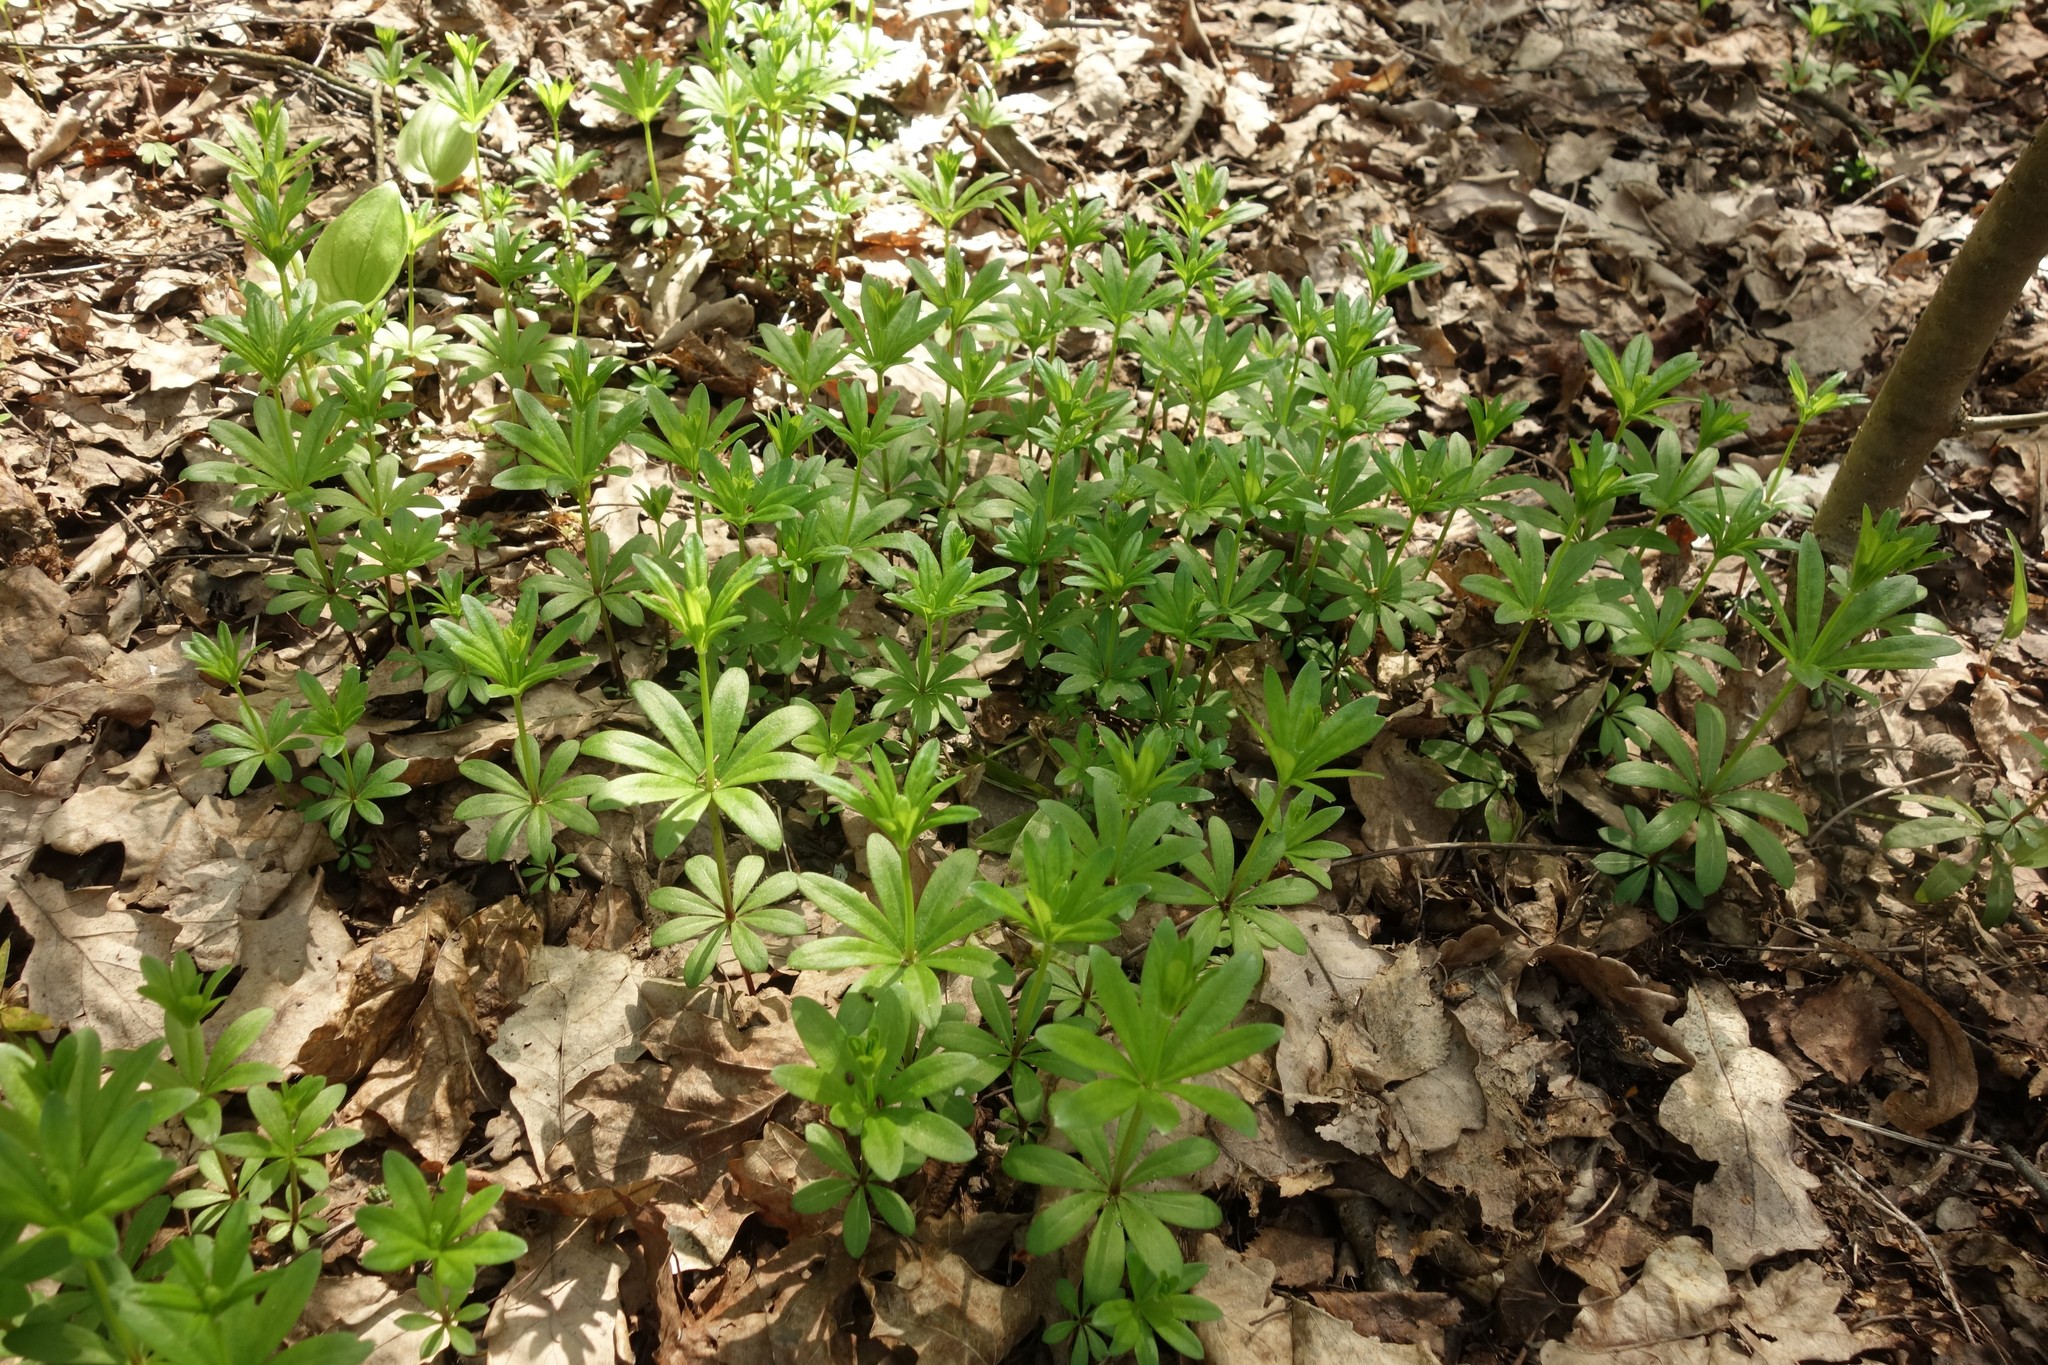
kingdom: Plantae
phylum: Tracheophyta
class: Magnoliopsida
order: Gentianales
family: Rubiaceae
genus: Galium
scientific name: Galium odoratum
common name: Sweet woodruff
